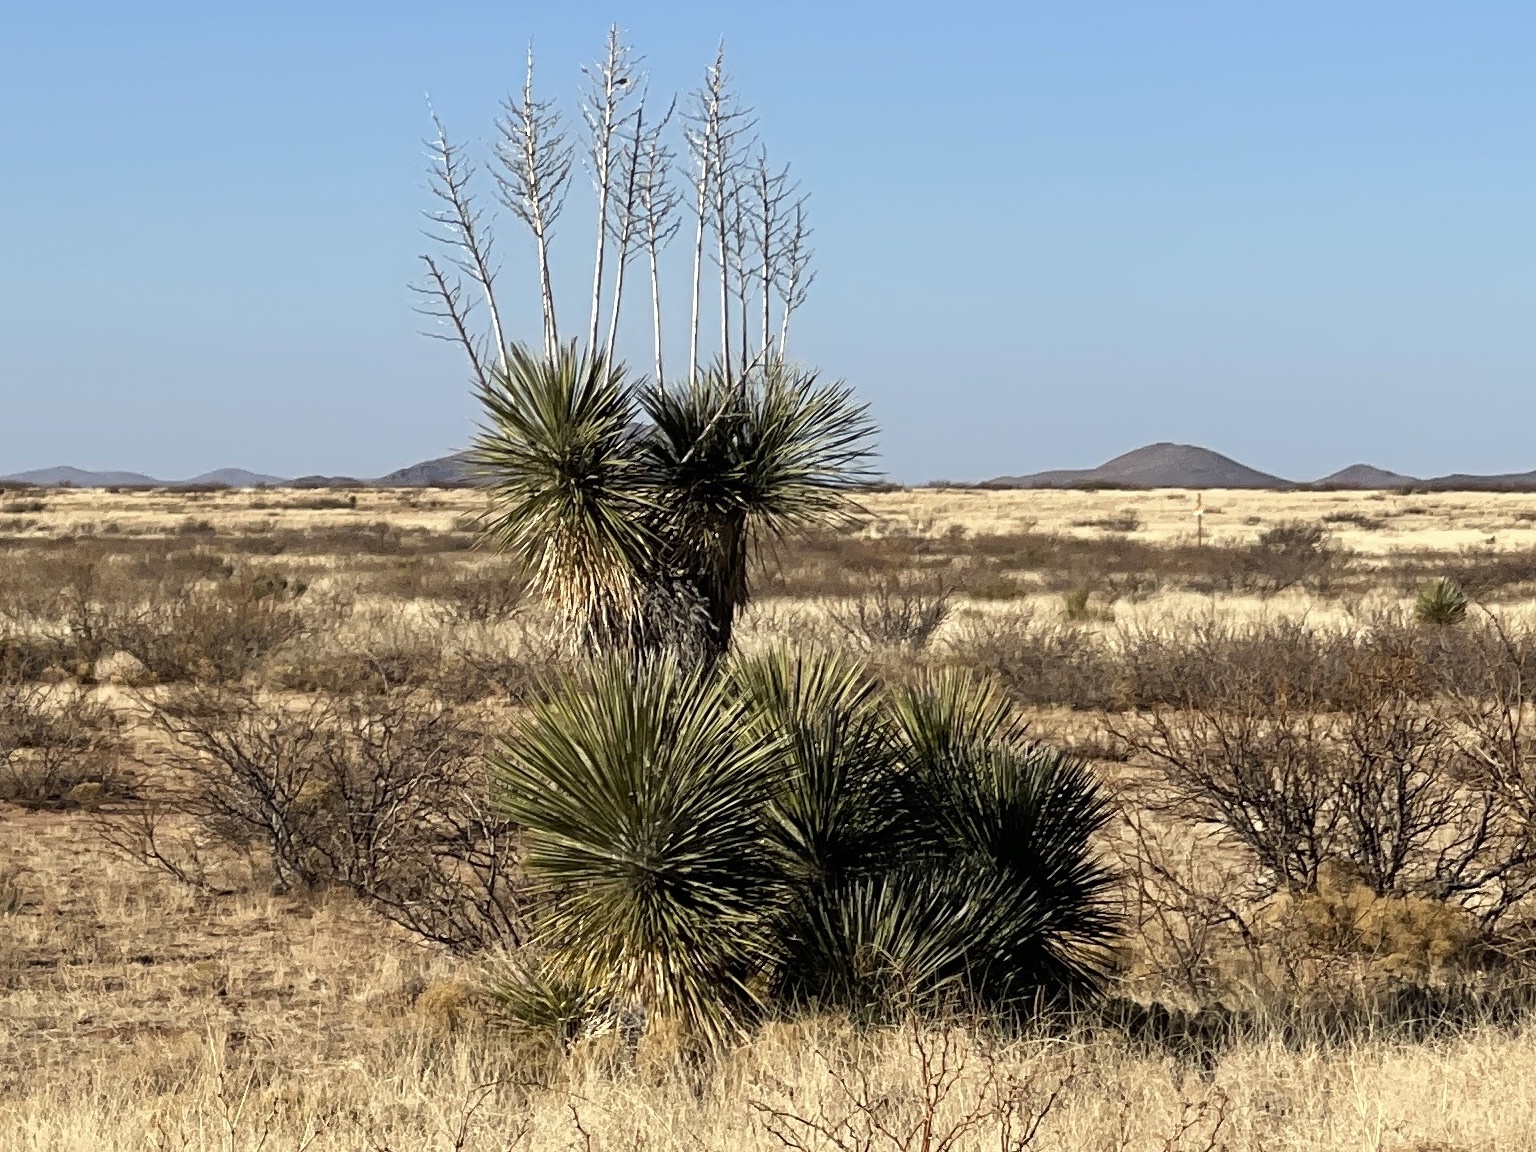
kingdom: Plantae
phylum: Tracheophyta
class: Liliopsida
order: Asparagales
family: Asparagaceae
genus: Yucca
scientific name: Yucca elata
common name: Palmella
